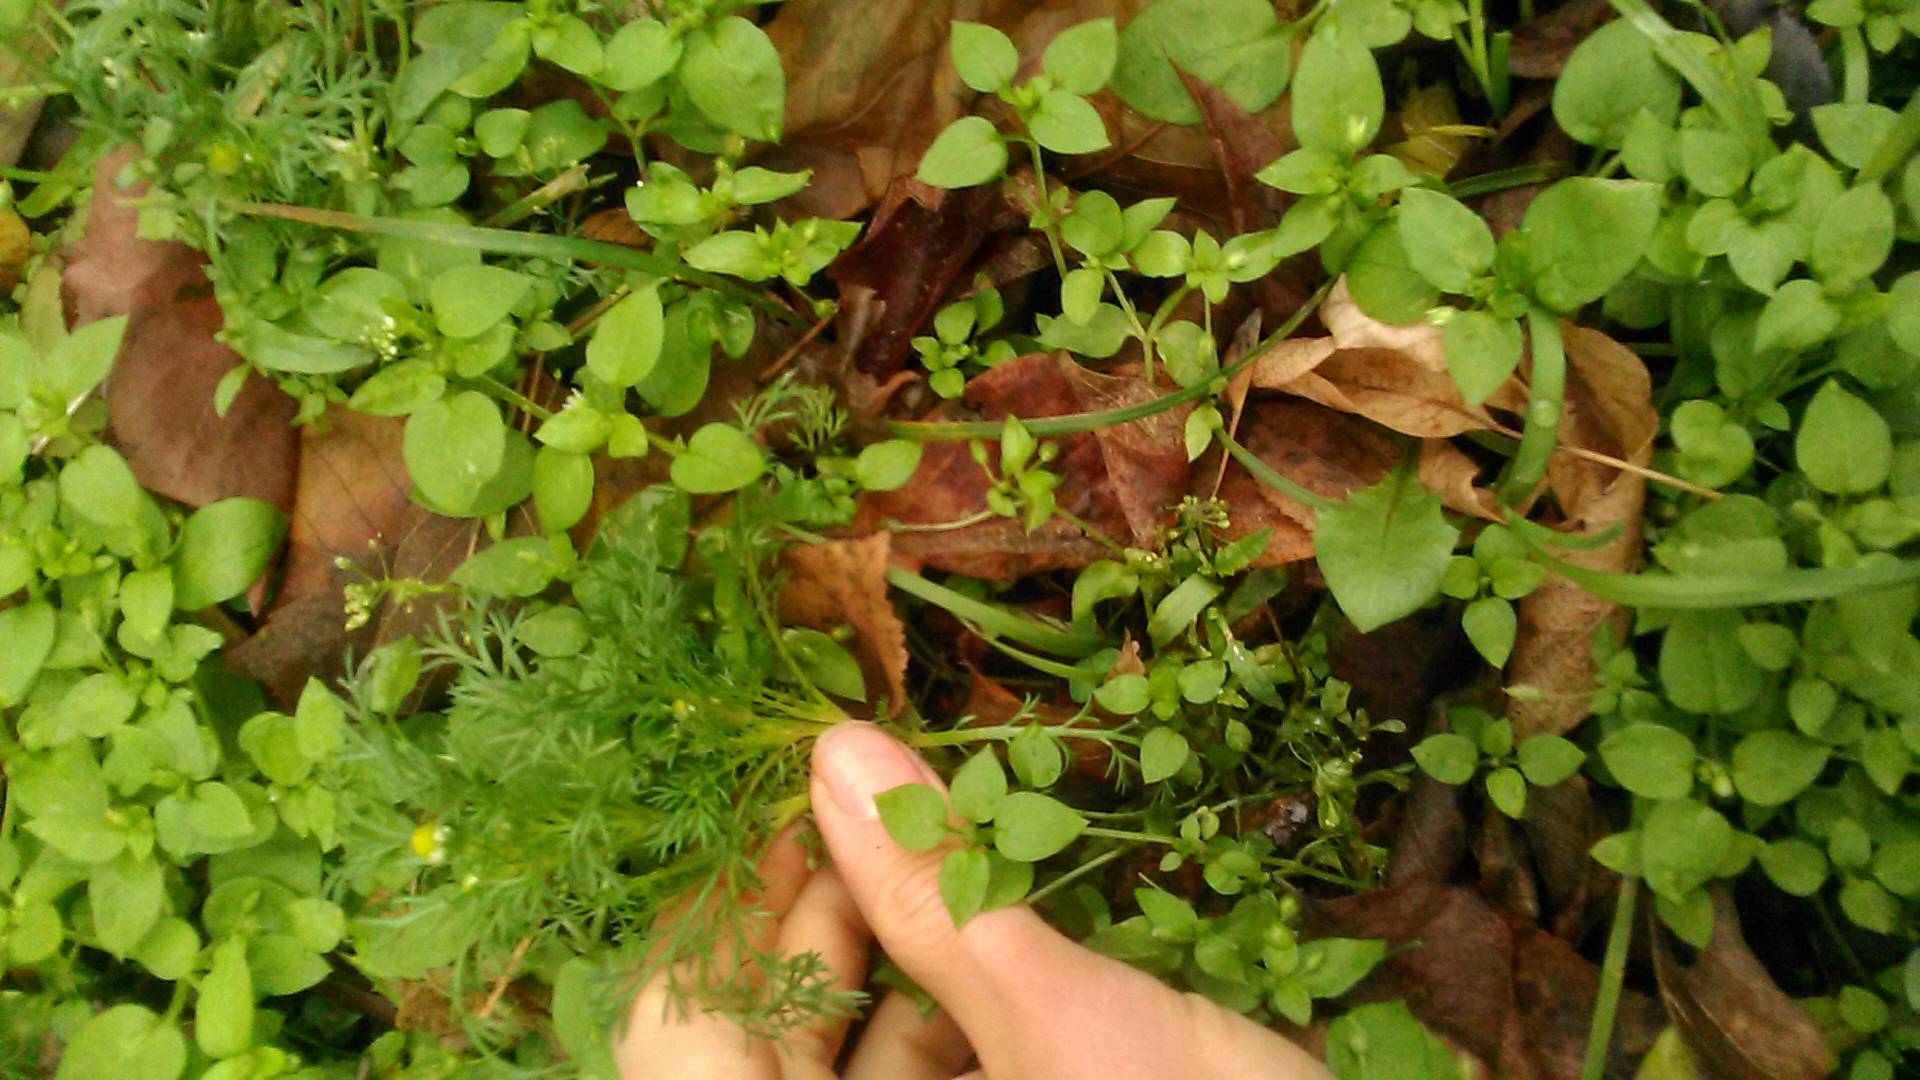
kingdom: Plantae
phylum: Tracheophyta
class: Magnoliopsida
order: Asterales
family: Asteraceae
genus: Matricaria
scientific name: Matricaria discoidea
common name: Disc mayweed
